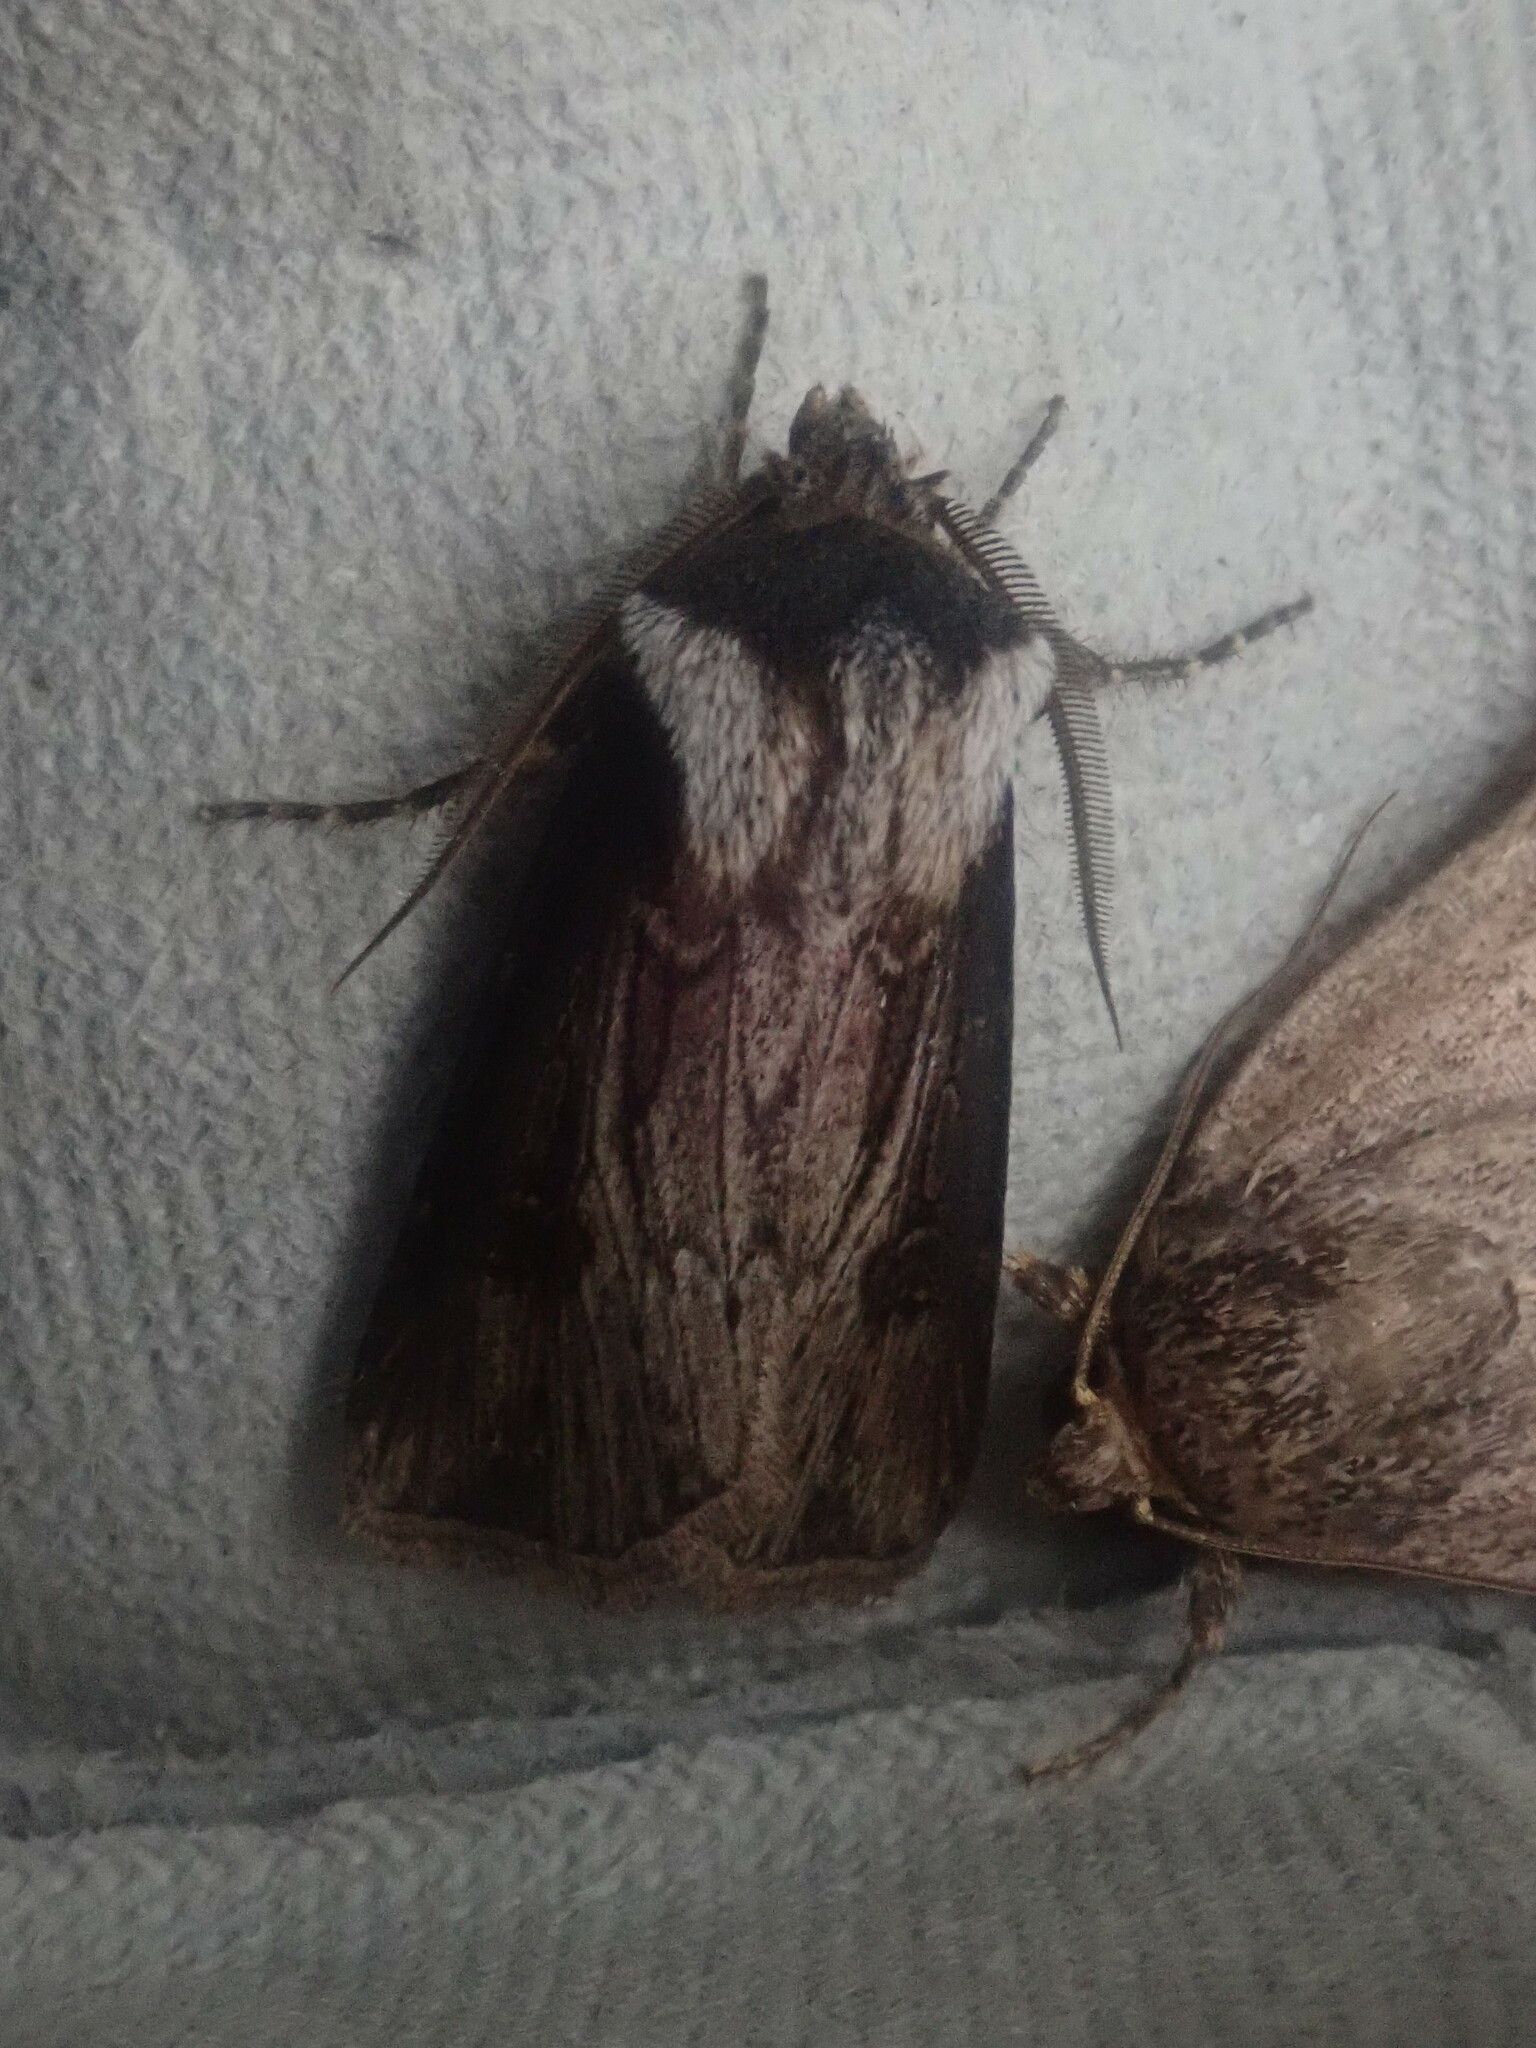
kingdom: Animalia
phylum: Arthropoda
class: Insecta
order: Lepidoptera
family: Noctuidae
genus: Agrotis
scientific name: Agrotis venerabilis
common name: Venerable dart
